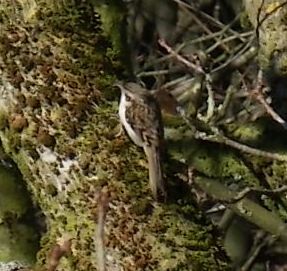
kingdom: Animalia
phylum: Chordata
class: Aves
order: Passeriformes
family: Certhiidae
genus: Certhia
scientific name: Certhia familiaris
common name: Eurasian treecreeper
